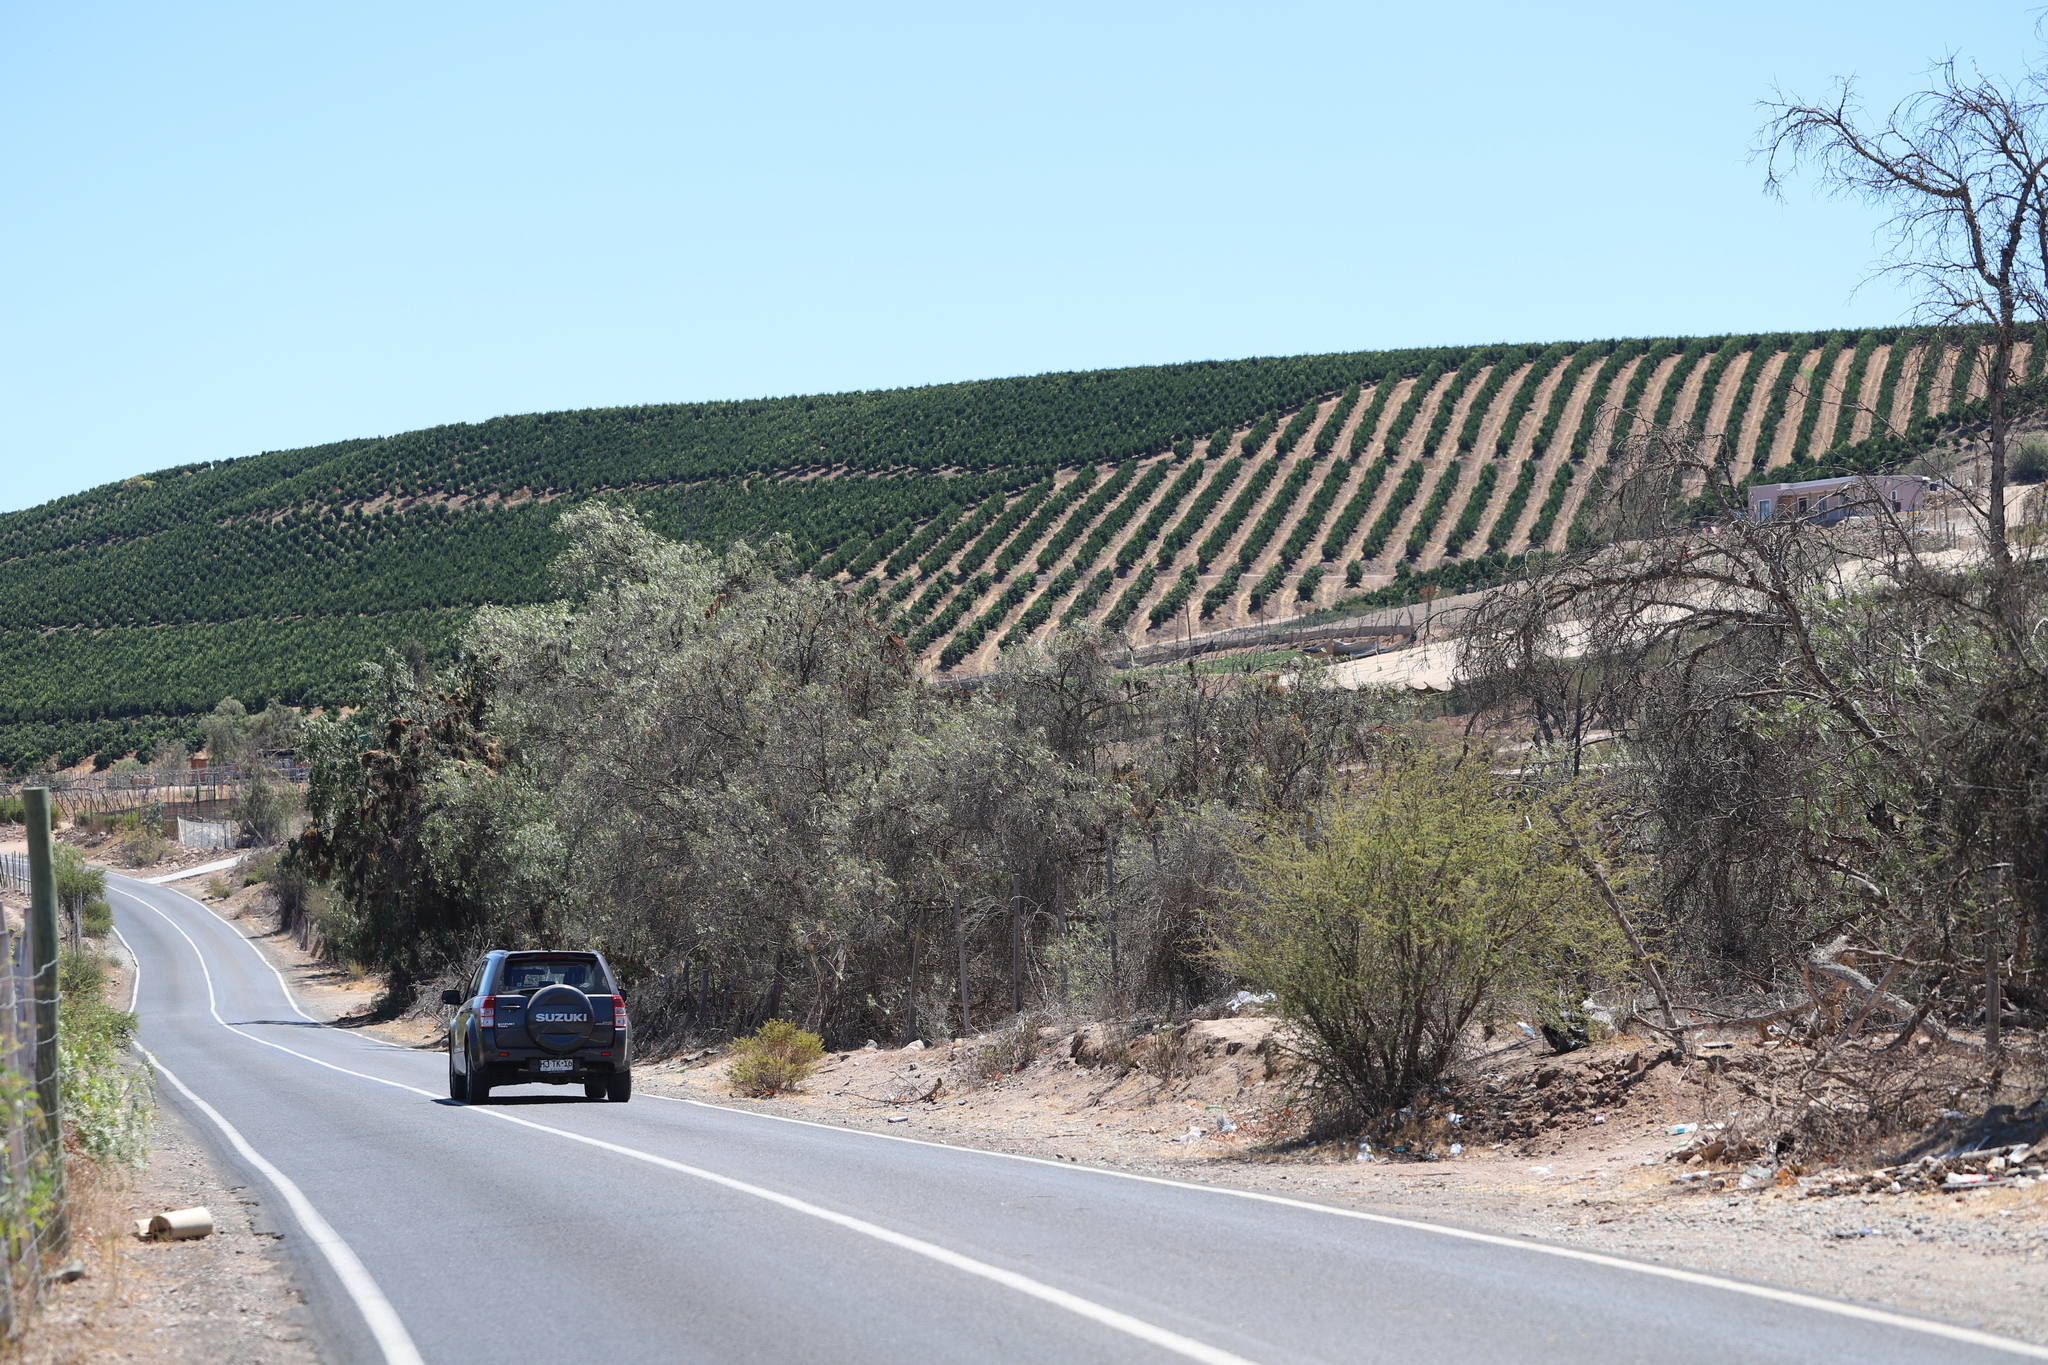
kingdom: Plantae
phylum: Tracheophyta
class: Magnoliopsida
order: Sapindales
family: Anacardiaceae
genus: Schinus
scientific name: Schinus areira
